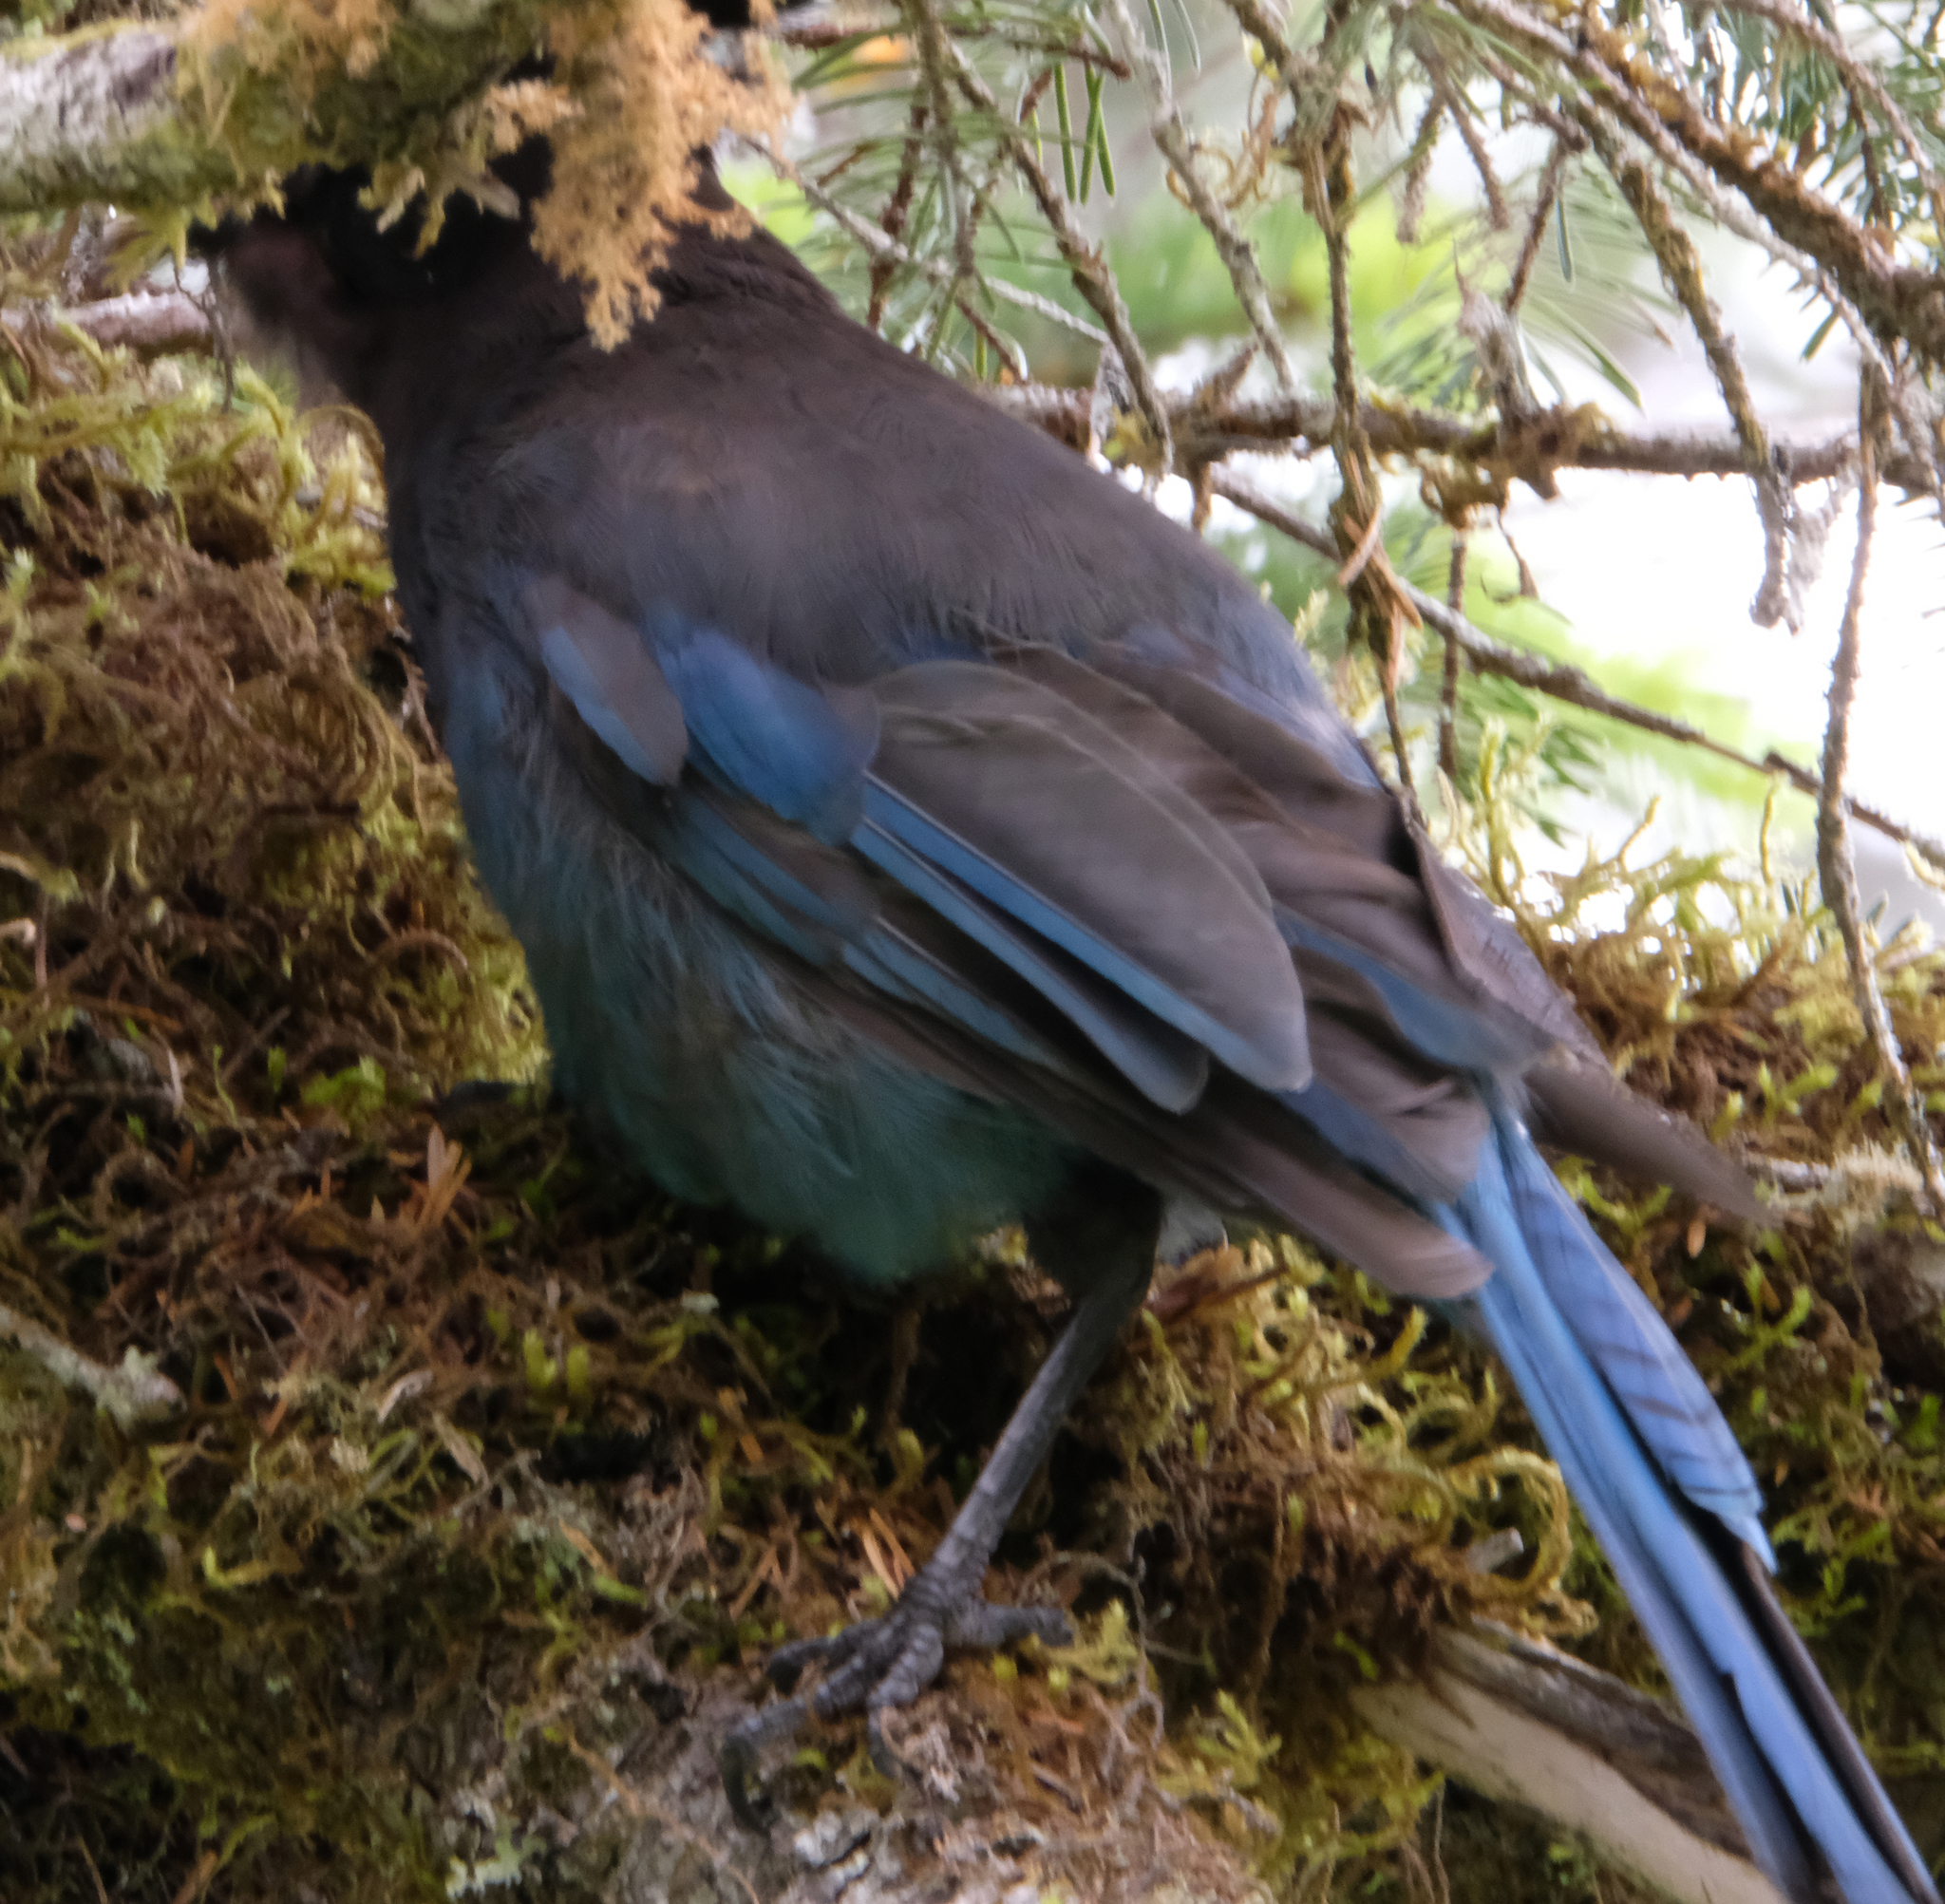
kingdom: Animalia
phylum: Chordata
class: Aves
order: Passeriformes
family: Corvidae
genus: Cyanocitta
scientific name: Cyanocitta stelleri
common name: Steller's jay
